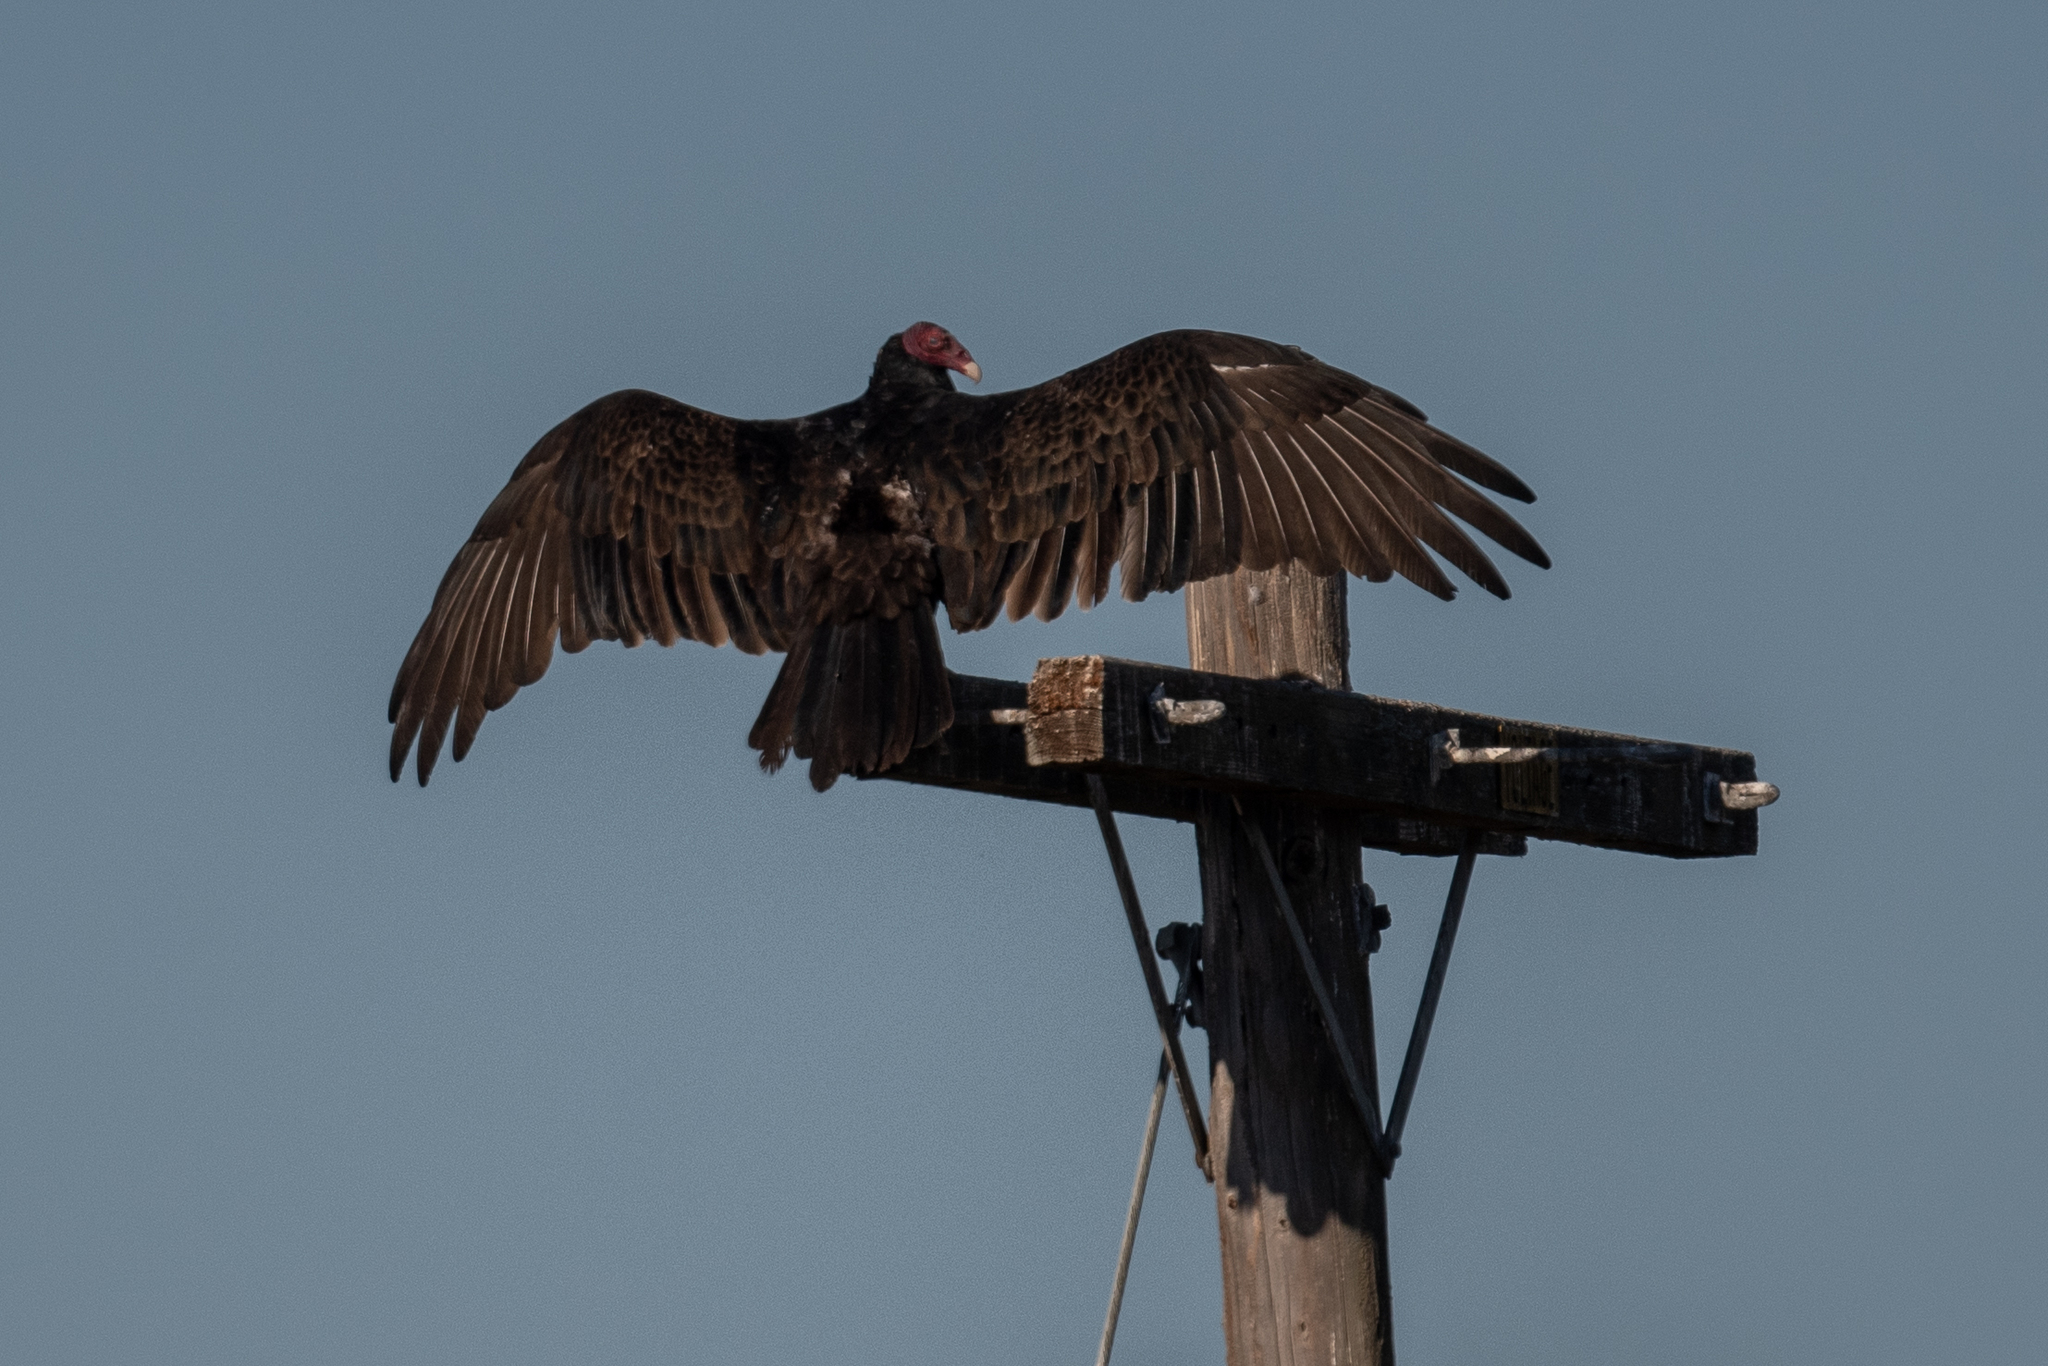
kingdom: Animalia
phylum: Chordata
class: Aves
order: Accipitriformes
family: Cathartidae
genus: Cathartes
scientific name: Cathartes aura
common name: Turkey vulture
